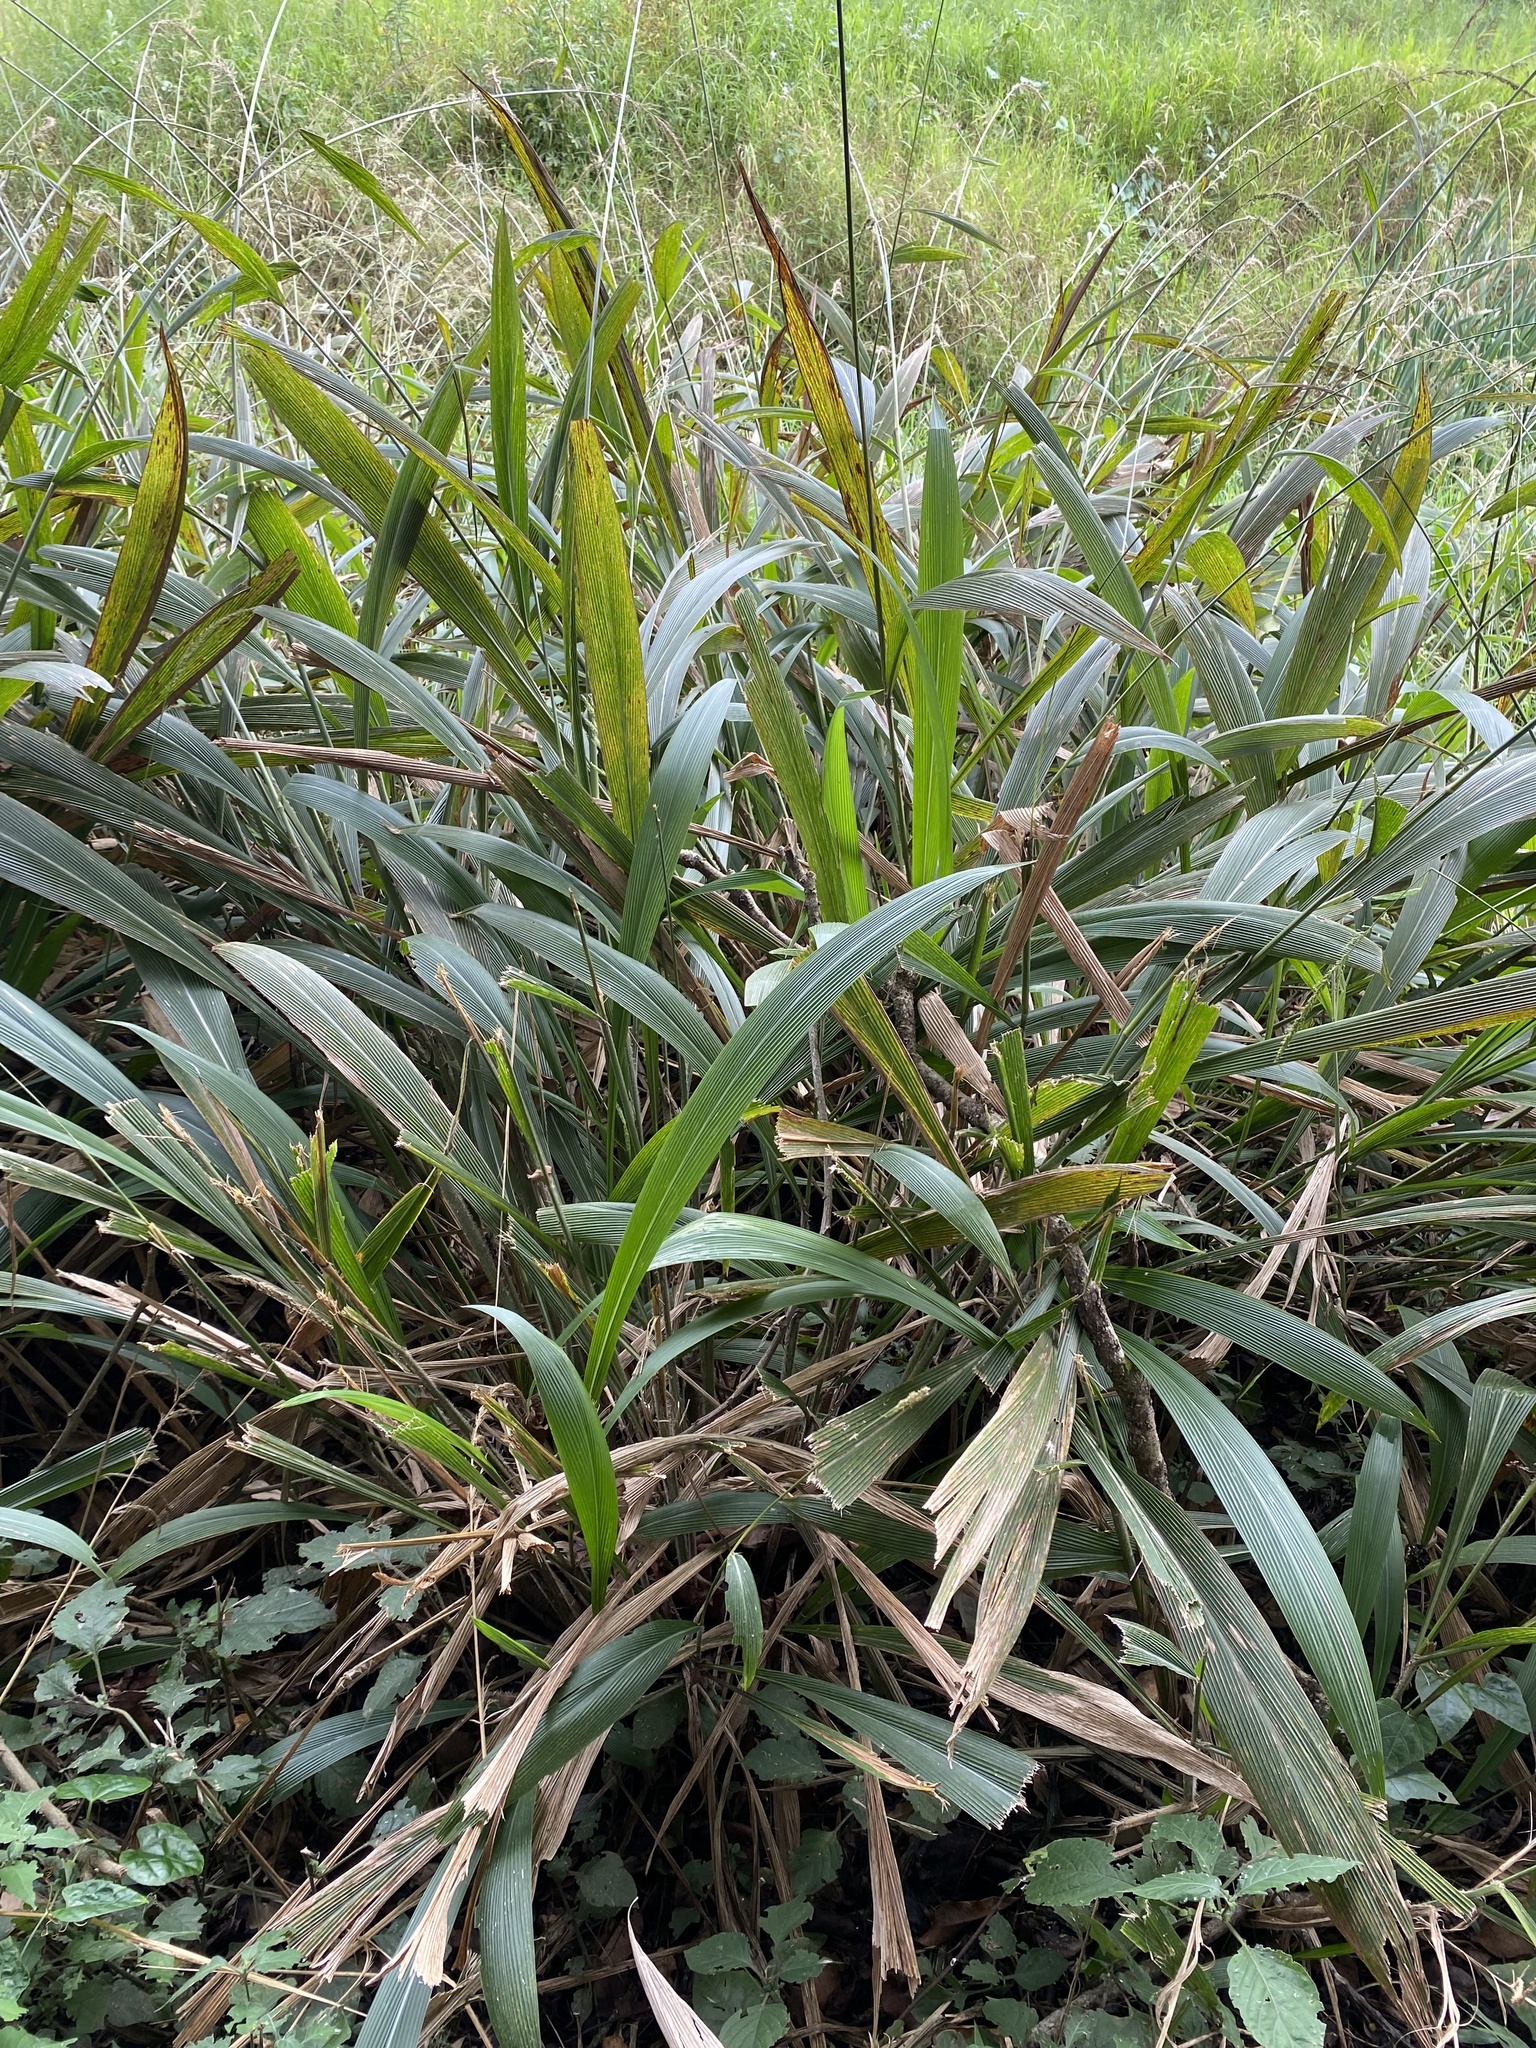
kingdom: Plantae
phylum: Tracheophyta
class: Liliopsida
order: Poales
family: Poaceae
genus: Setaria
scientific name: Setaria megaphylla
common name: Bigleaf bristlegrass
